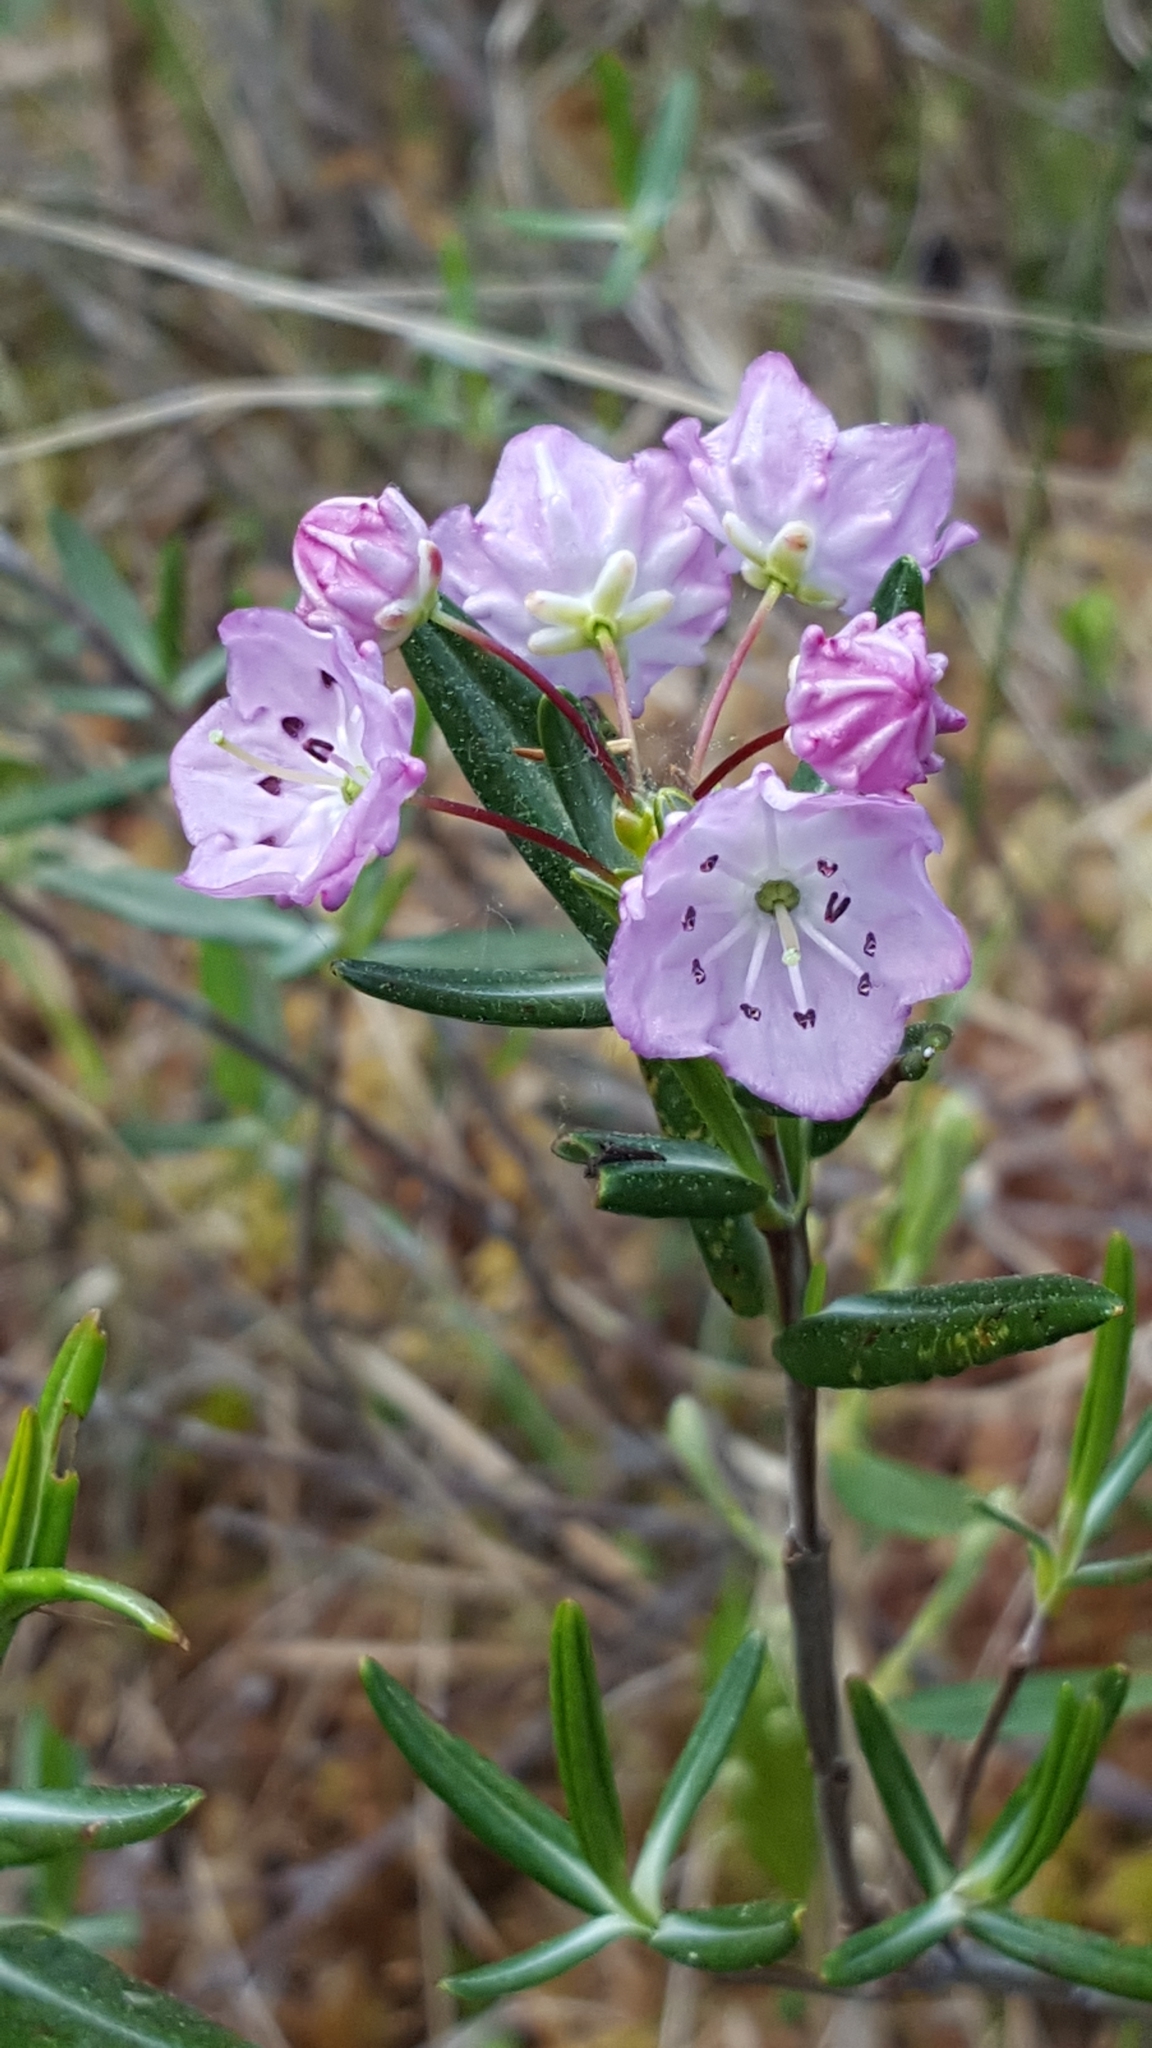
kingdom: Plantae
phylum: Tracheophyta
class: Magnoliopsida
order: Ericales
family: Ericaceae
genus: Kalmia
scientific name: Kalmia polifolia
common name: Bog-laurel
